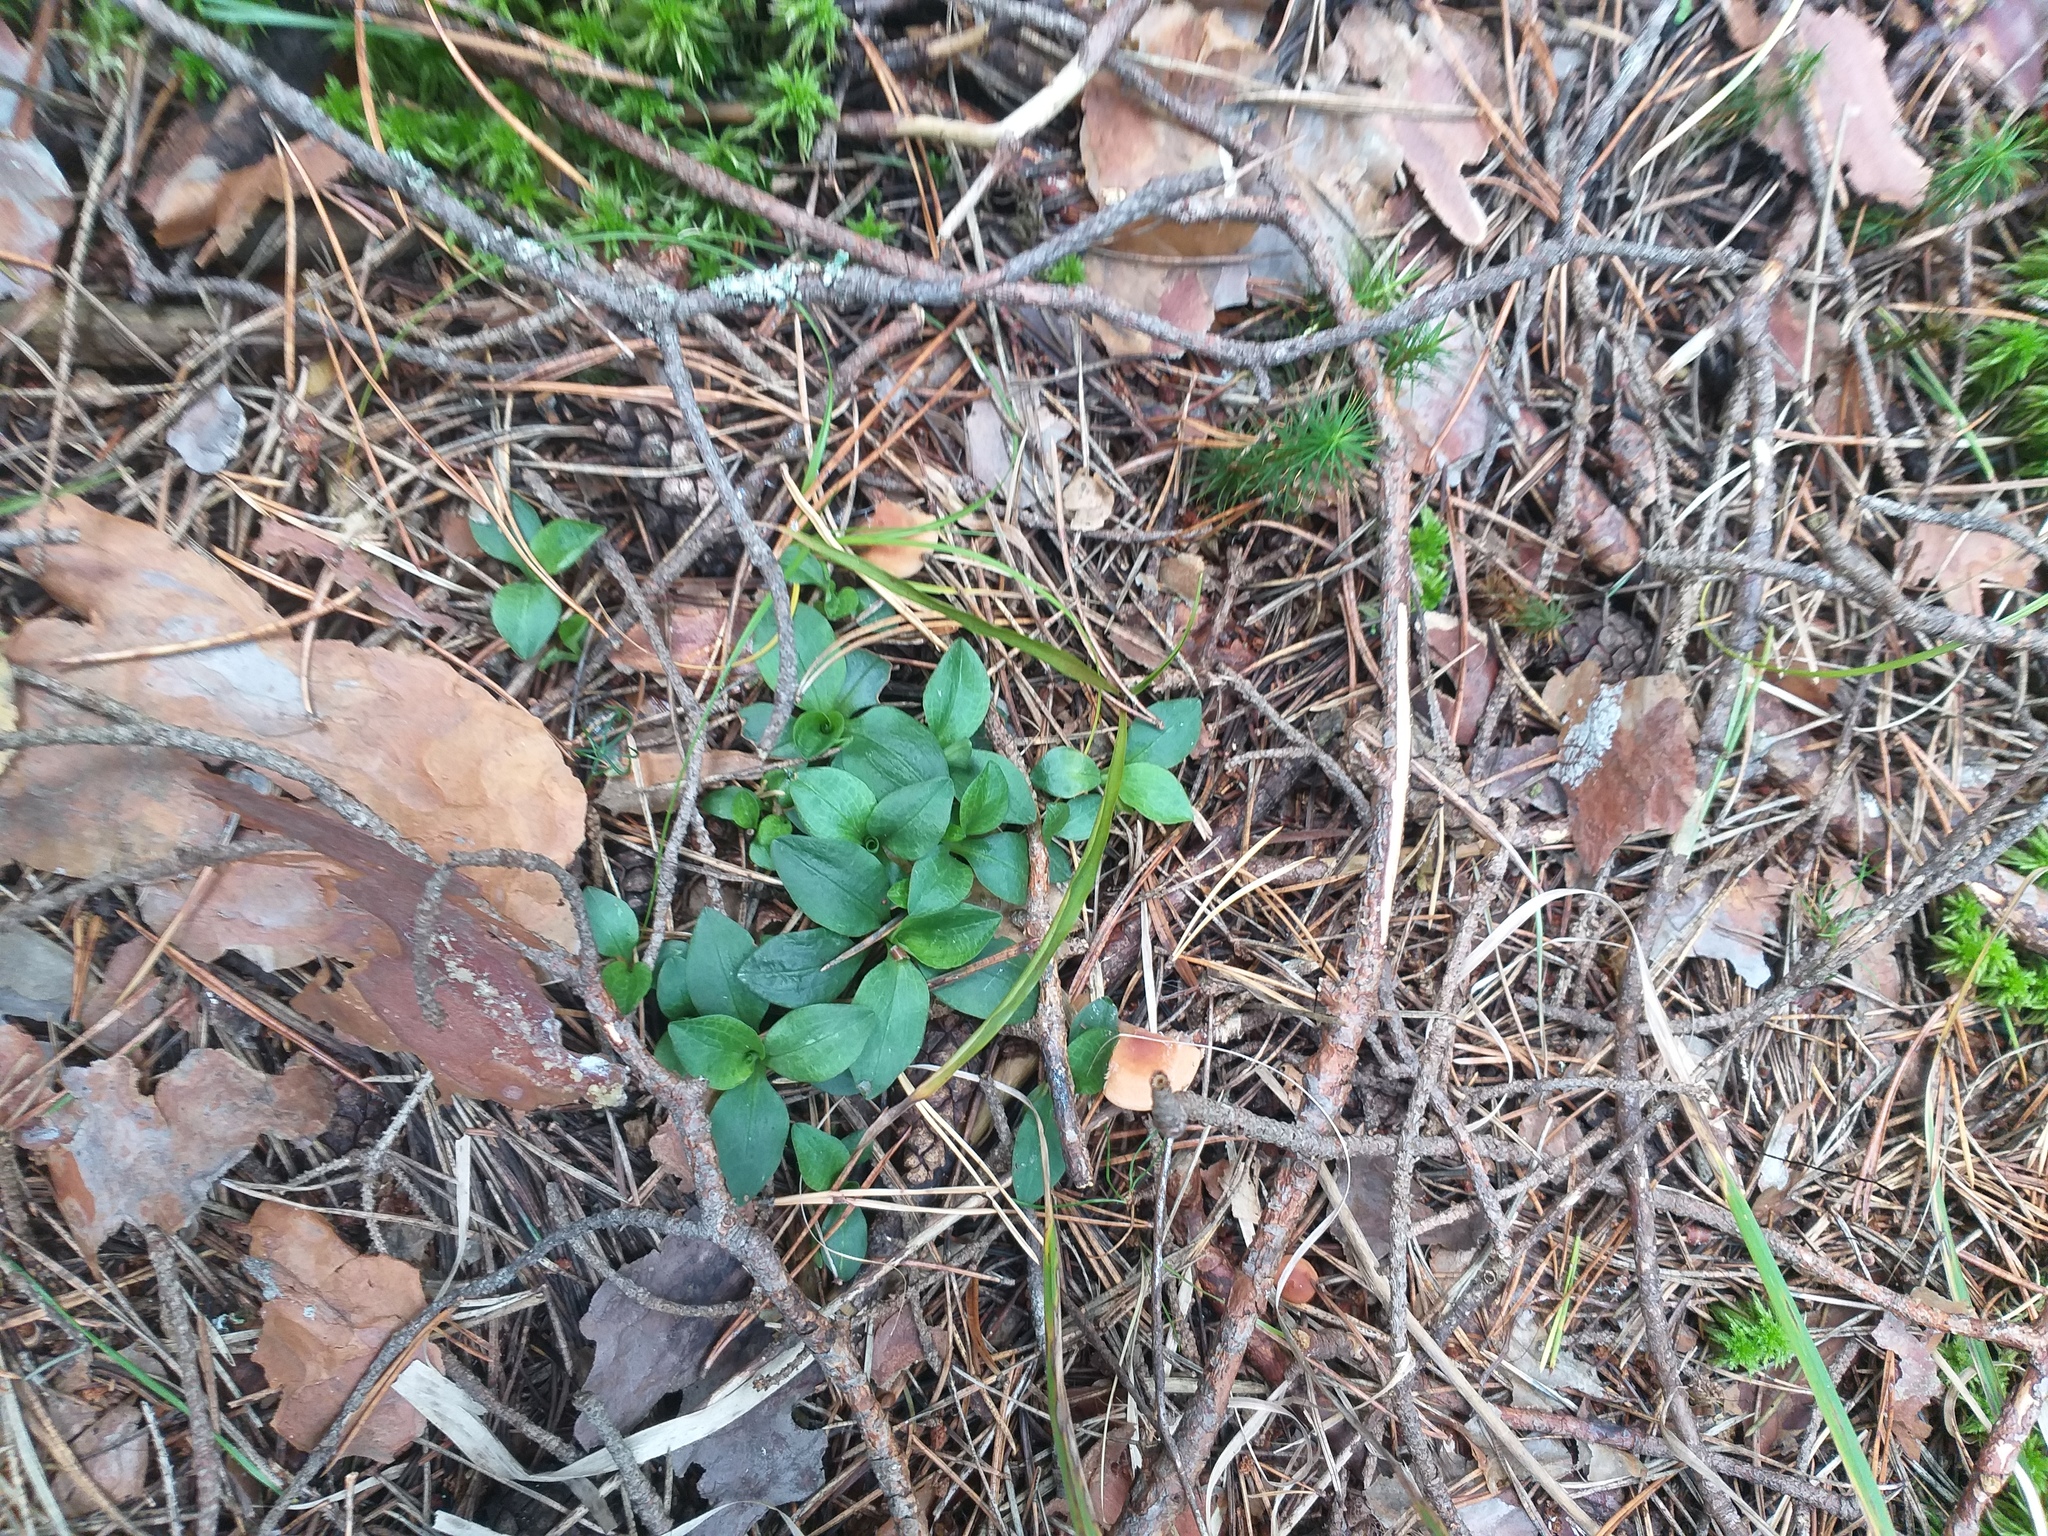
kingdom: Plantae
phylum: Tracheophyta
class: Liliopsida
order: Asparagales
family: Orchidaceae
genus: Goodyera
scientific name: Goodyera repens
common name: Creeping lady's-tresses
